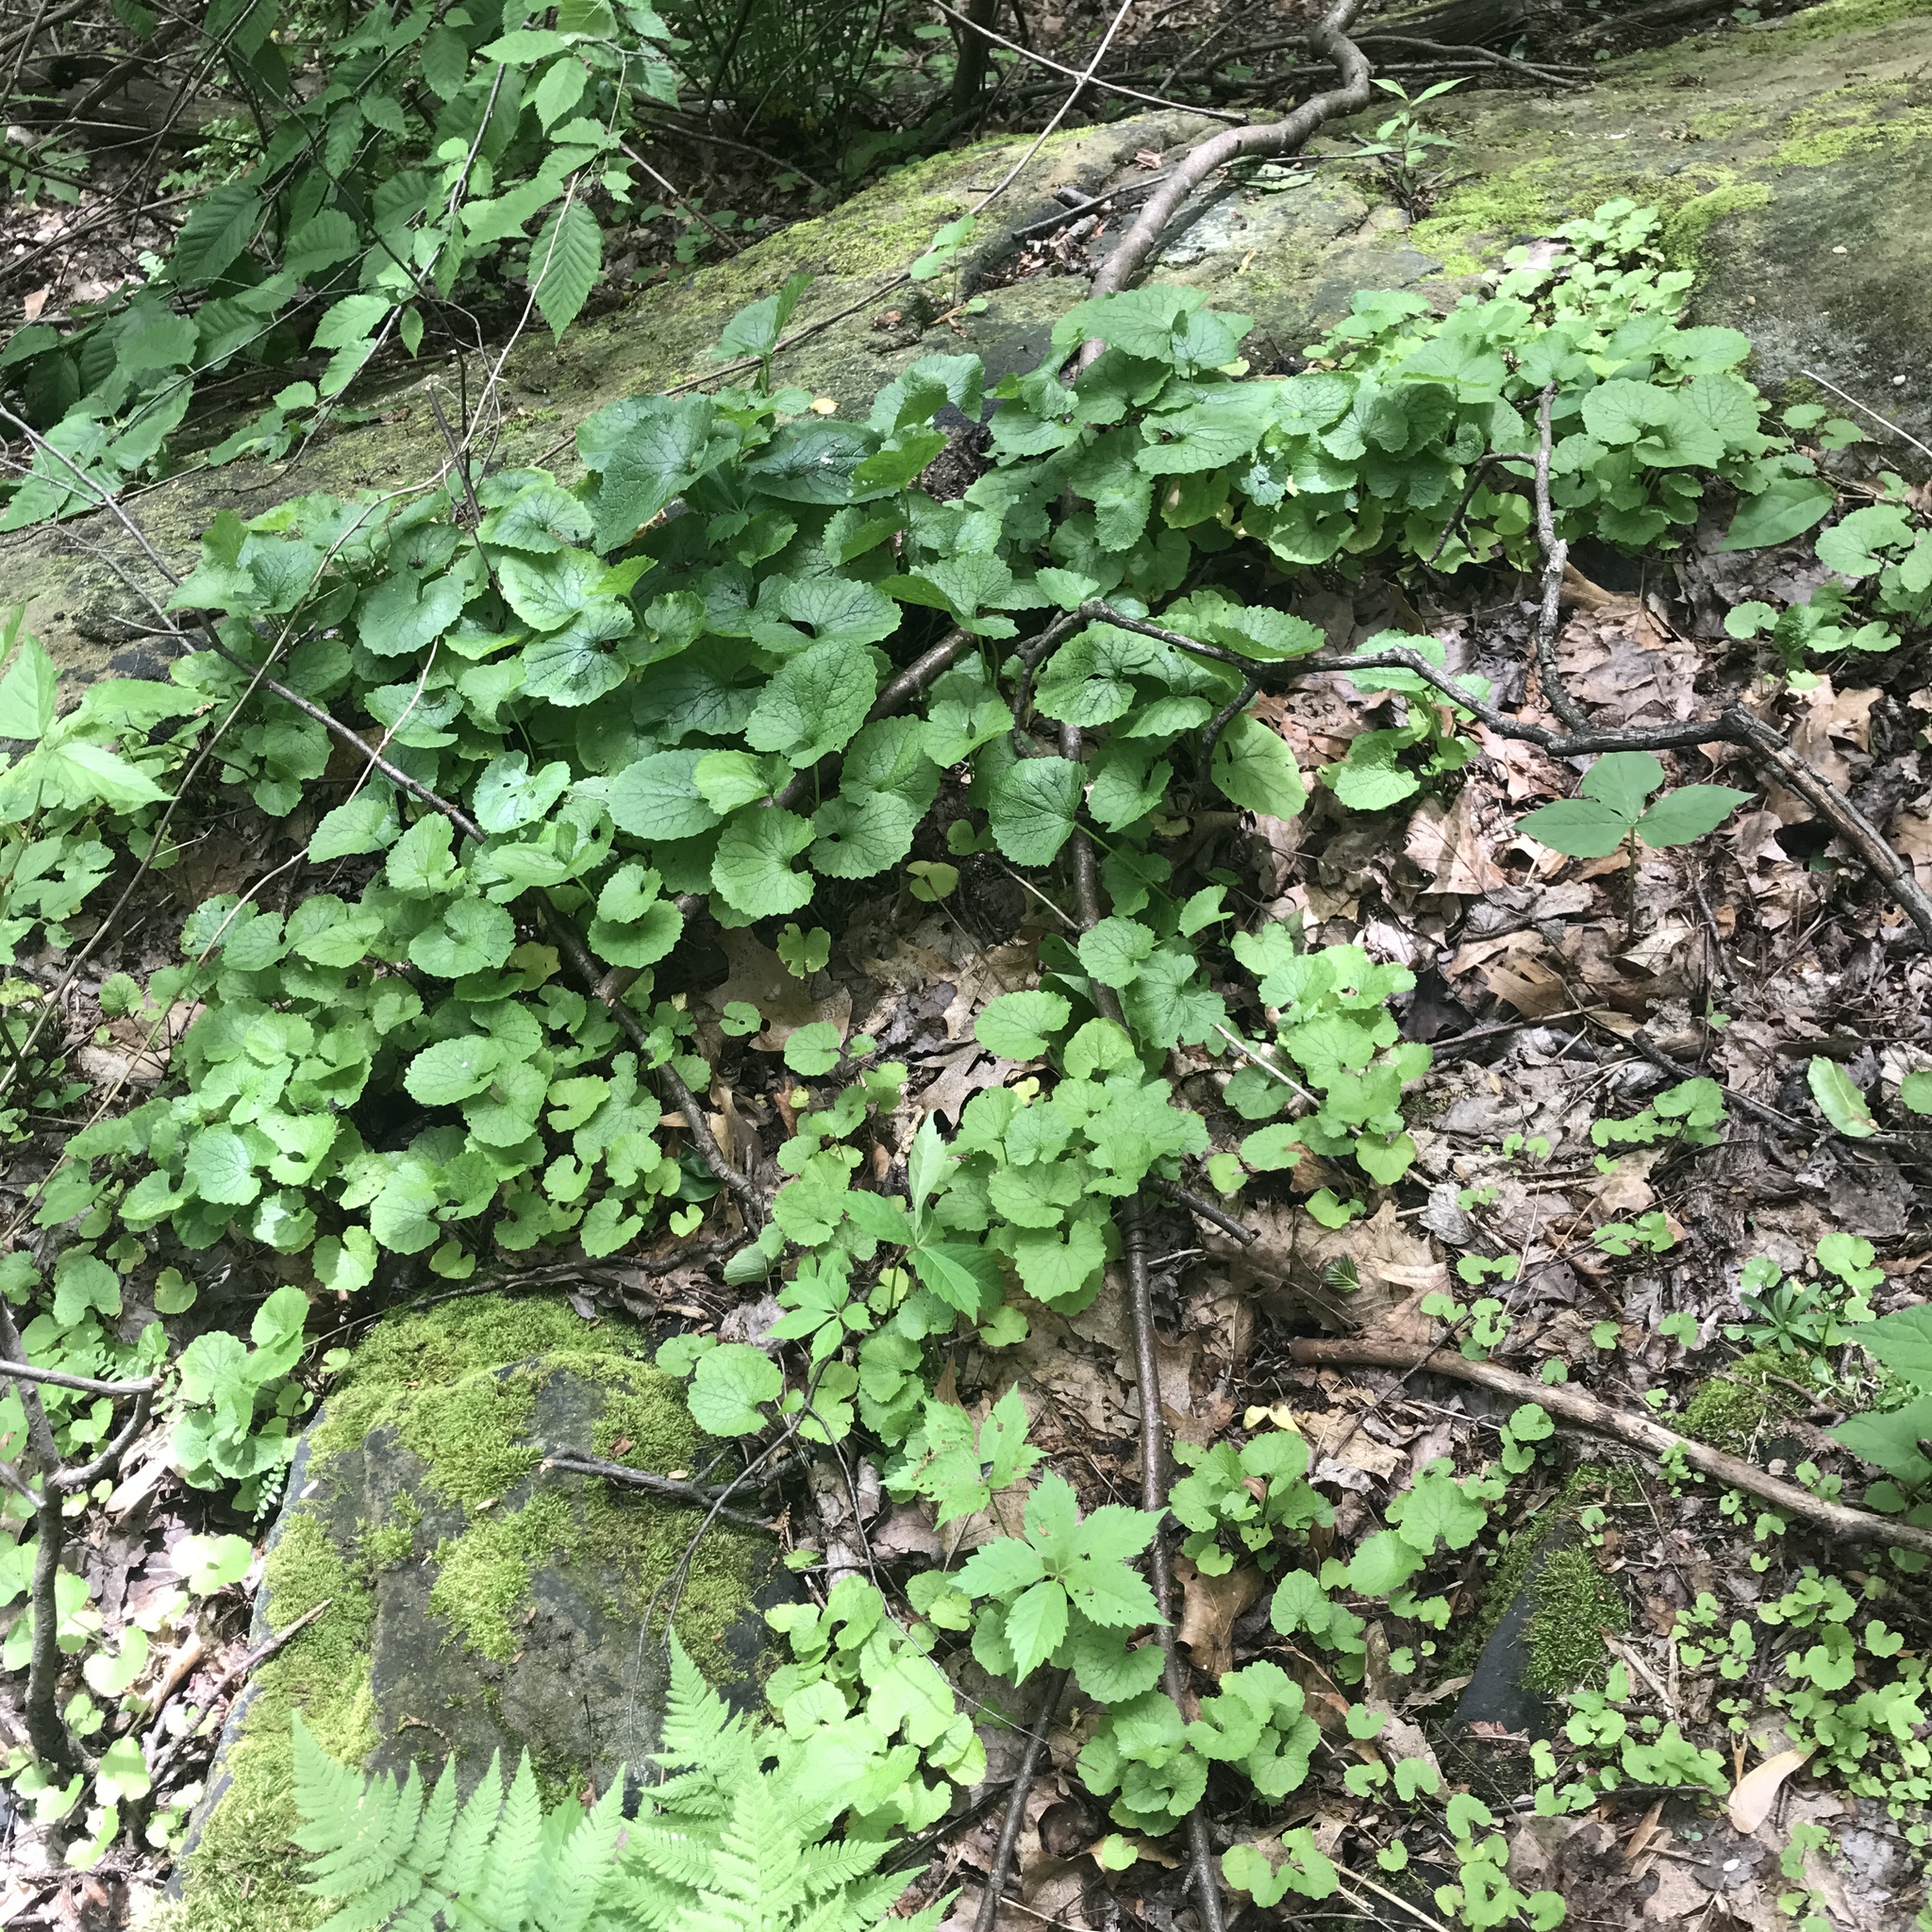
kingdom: Plantae
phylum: Tracheophyta
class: Magnoliopsida
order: Brassicales
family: Brassicaceae
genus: Alliaria
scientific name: Alliaria petiolata
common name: Garlic mustard
